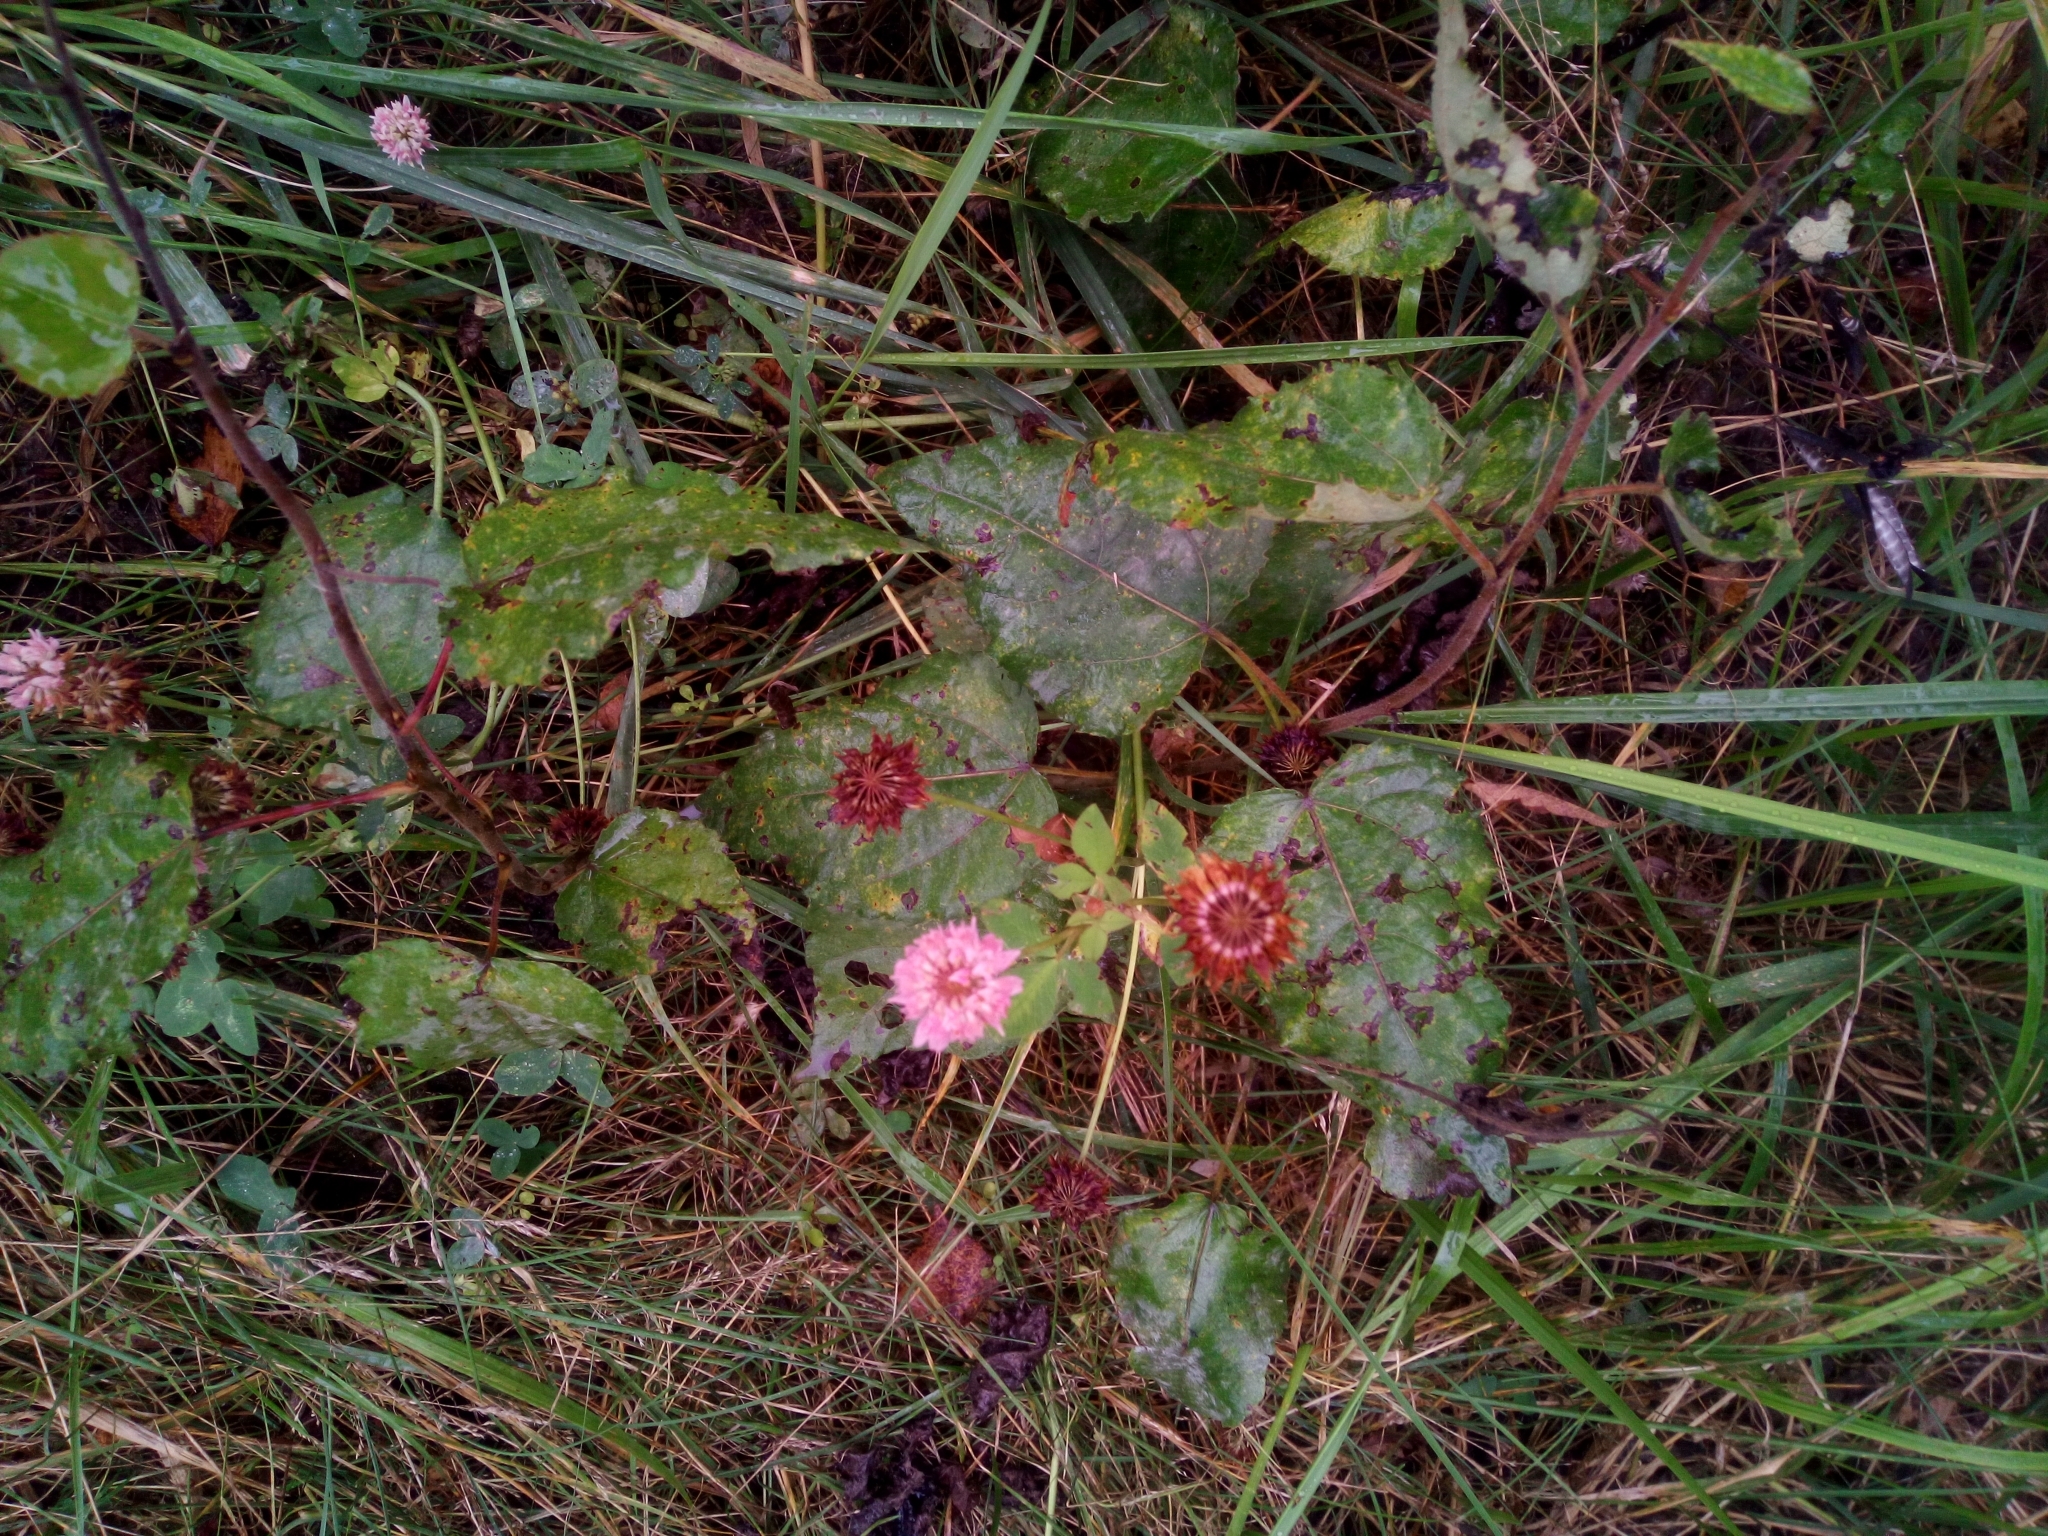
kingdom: Plantae
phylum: Tracheophyta
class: Magnoliopsida
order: Fabales
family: Fabaceae
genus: Trifolium
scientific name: Trifolium hybridum
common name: Alsike clover
